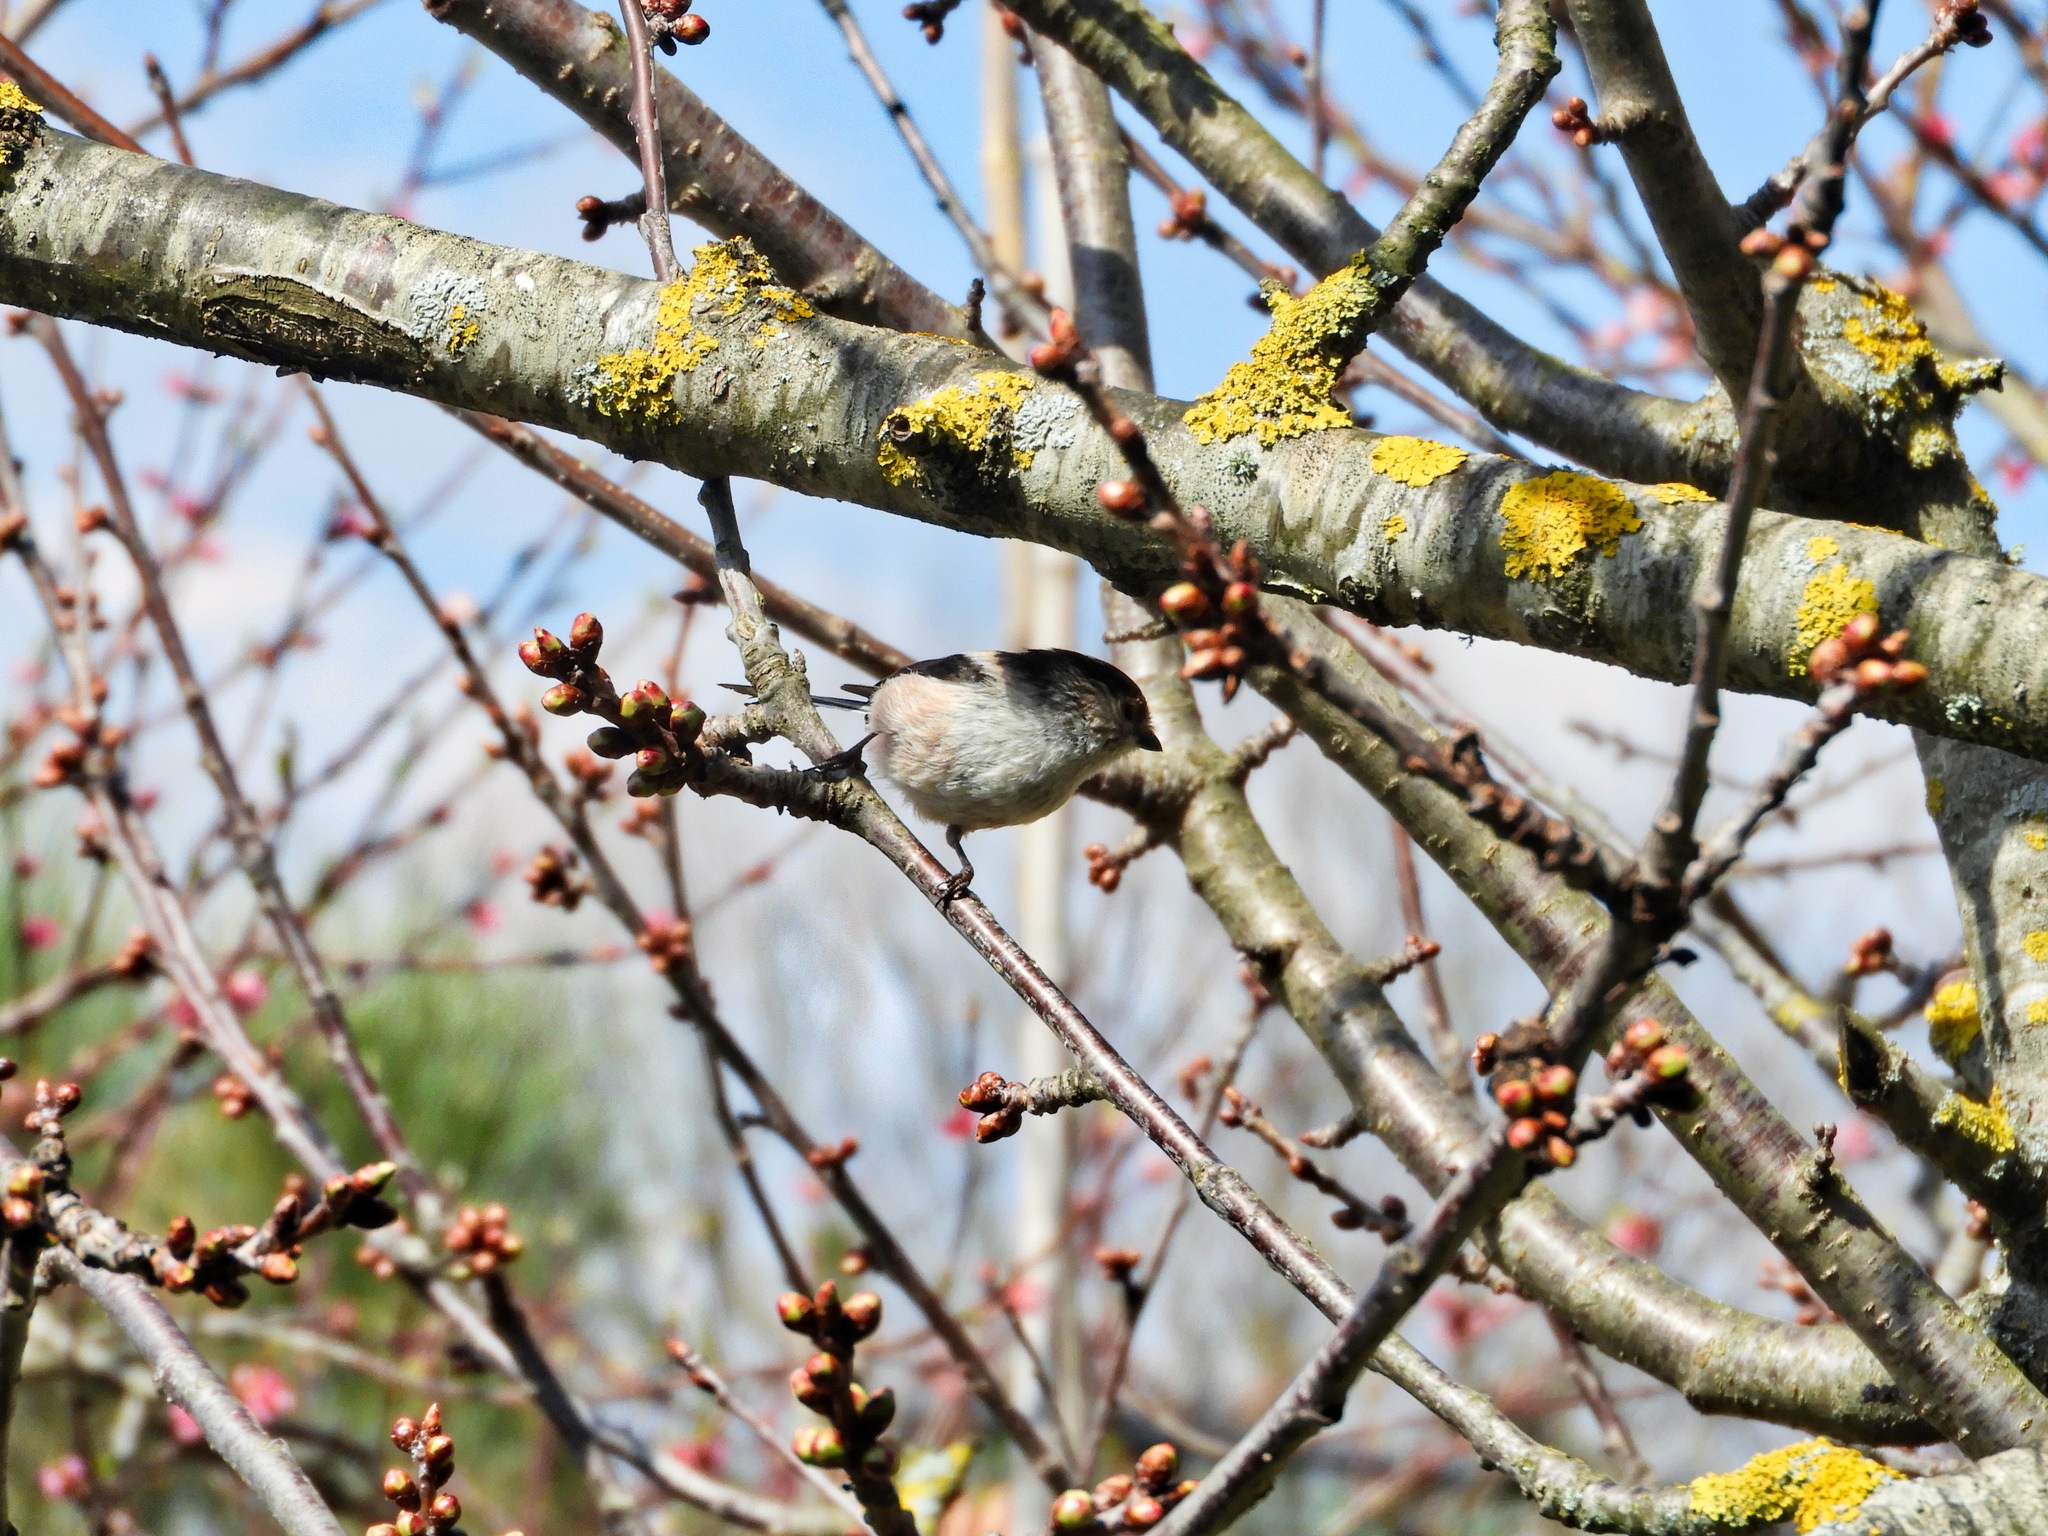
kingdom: Animalia
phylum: Chordata
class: Aves
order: Passeriformes
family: Aegithalidae
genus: Aegithalos
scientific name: Aegithalos caudatus
